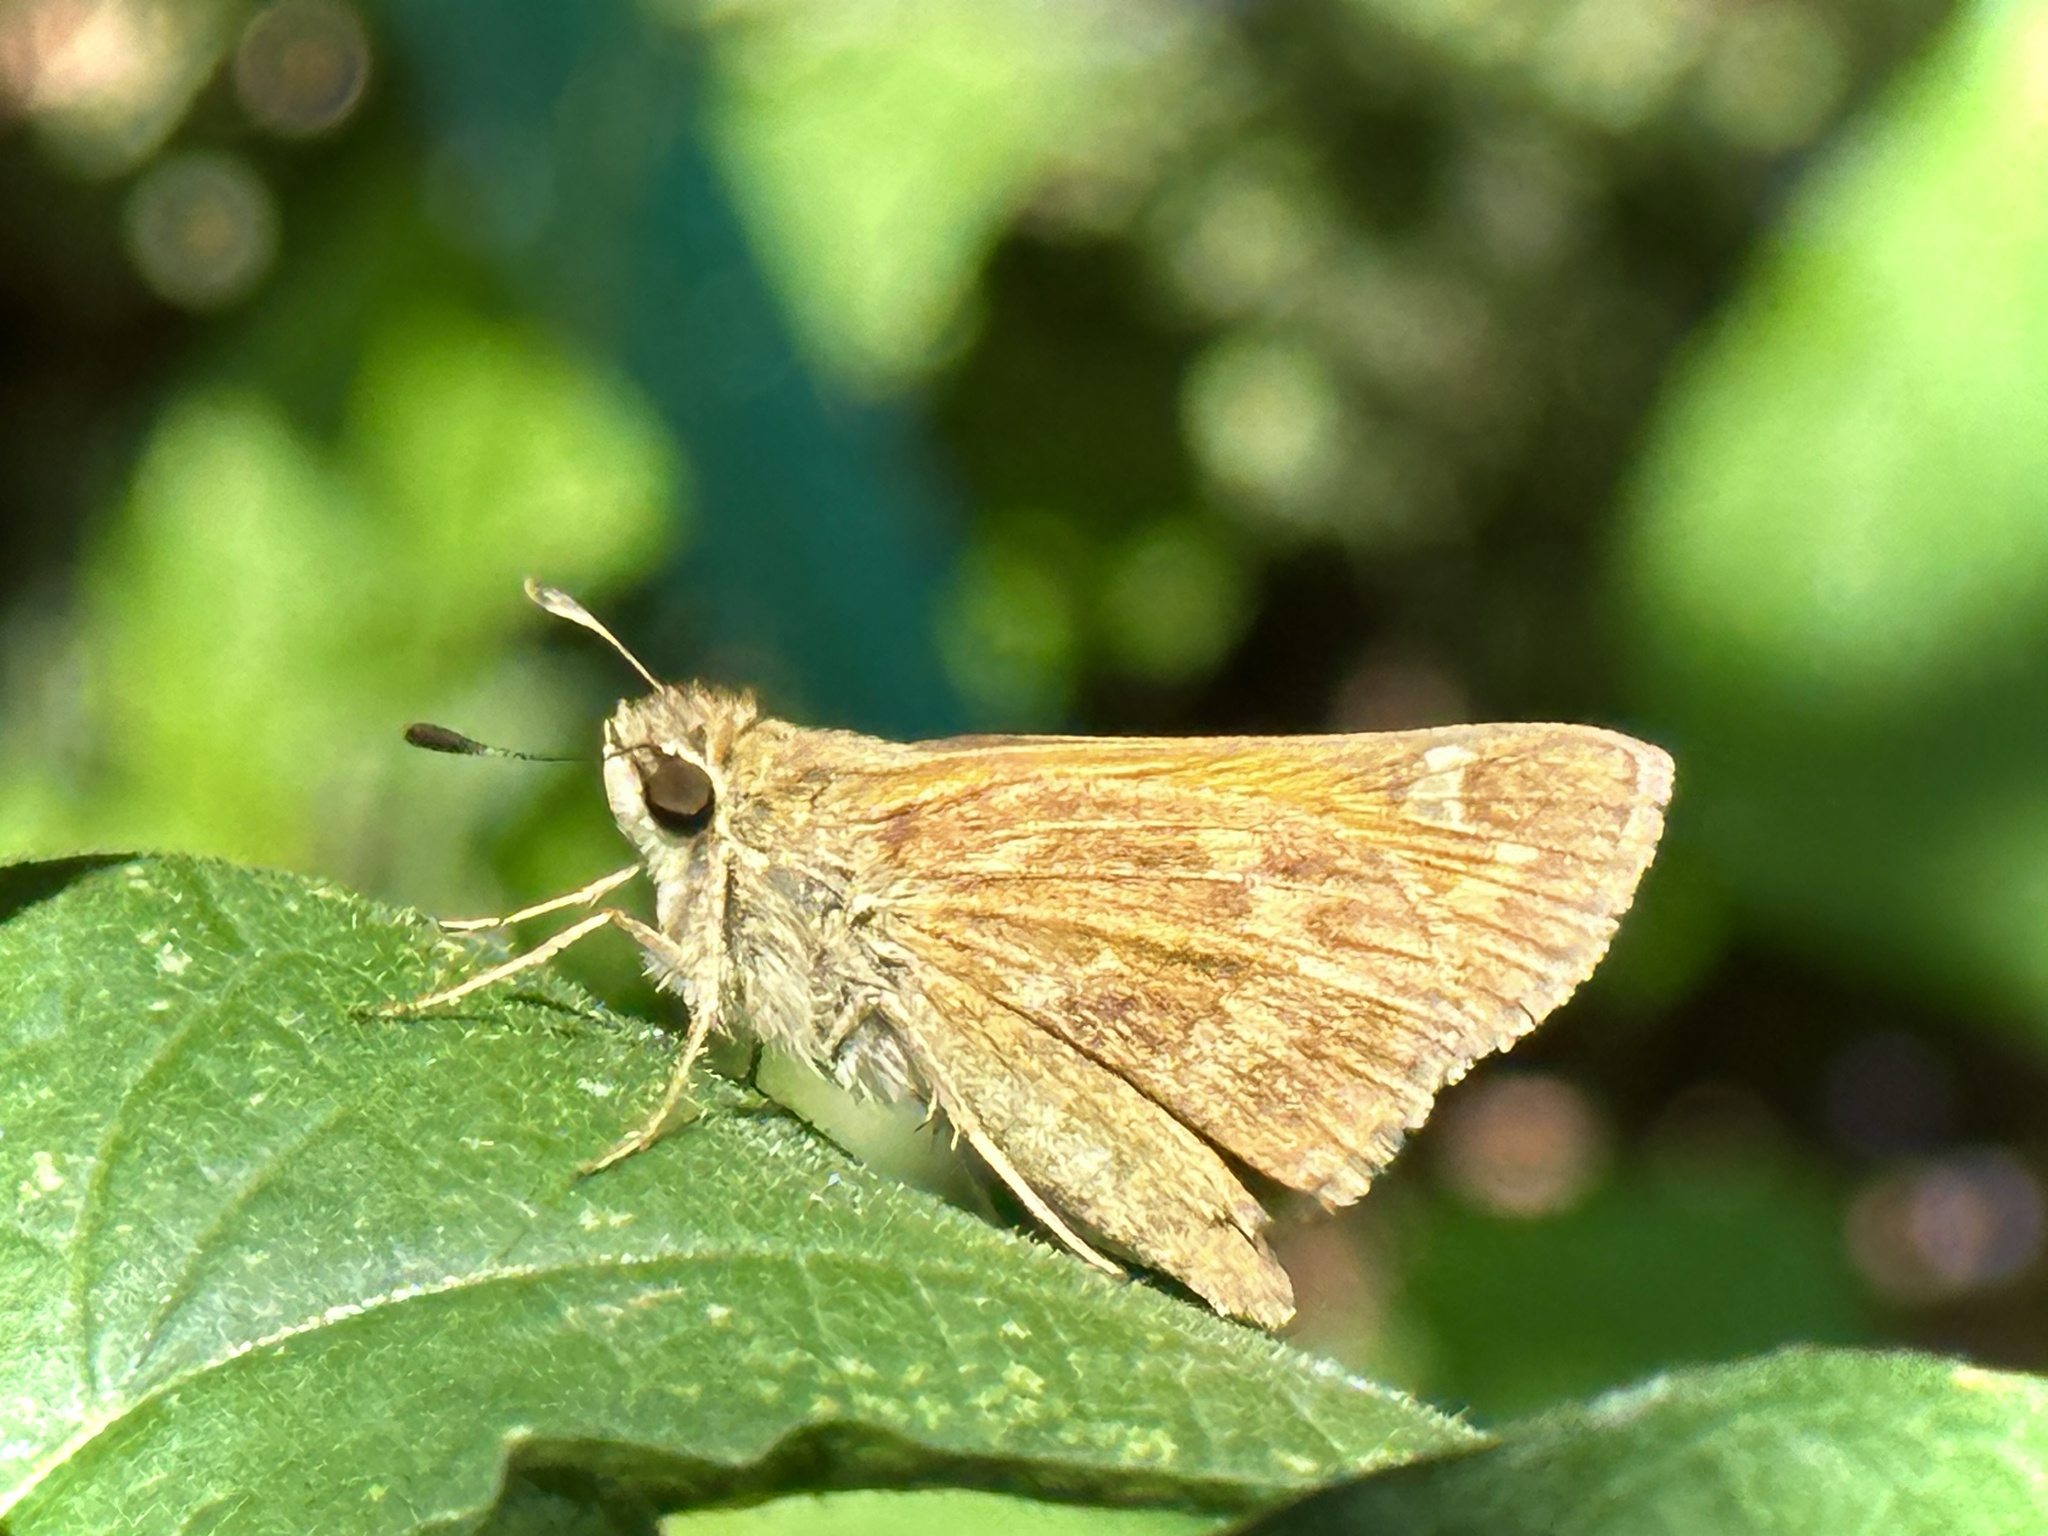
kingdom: Animalia
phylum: Arthropoda
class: Insecta
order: Lepidoptera
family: Hesperiidae
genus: Atalopedes
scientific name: Atalopedes
